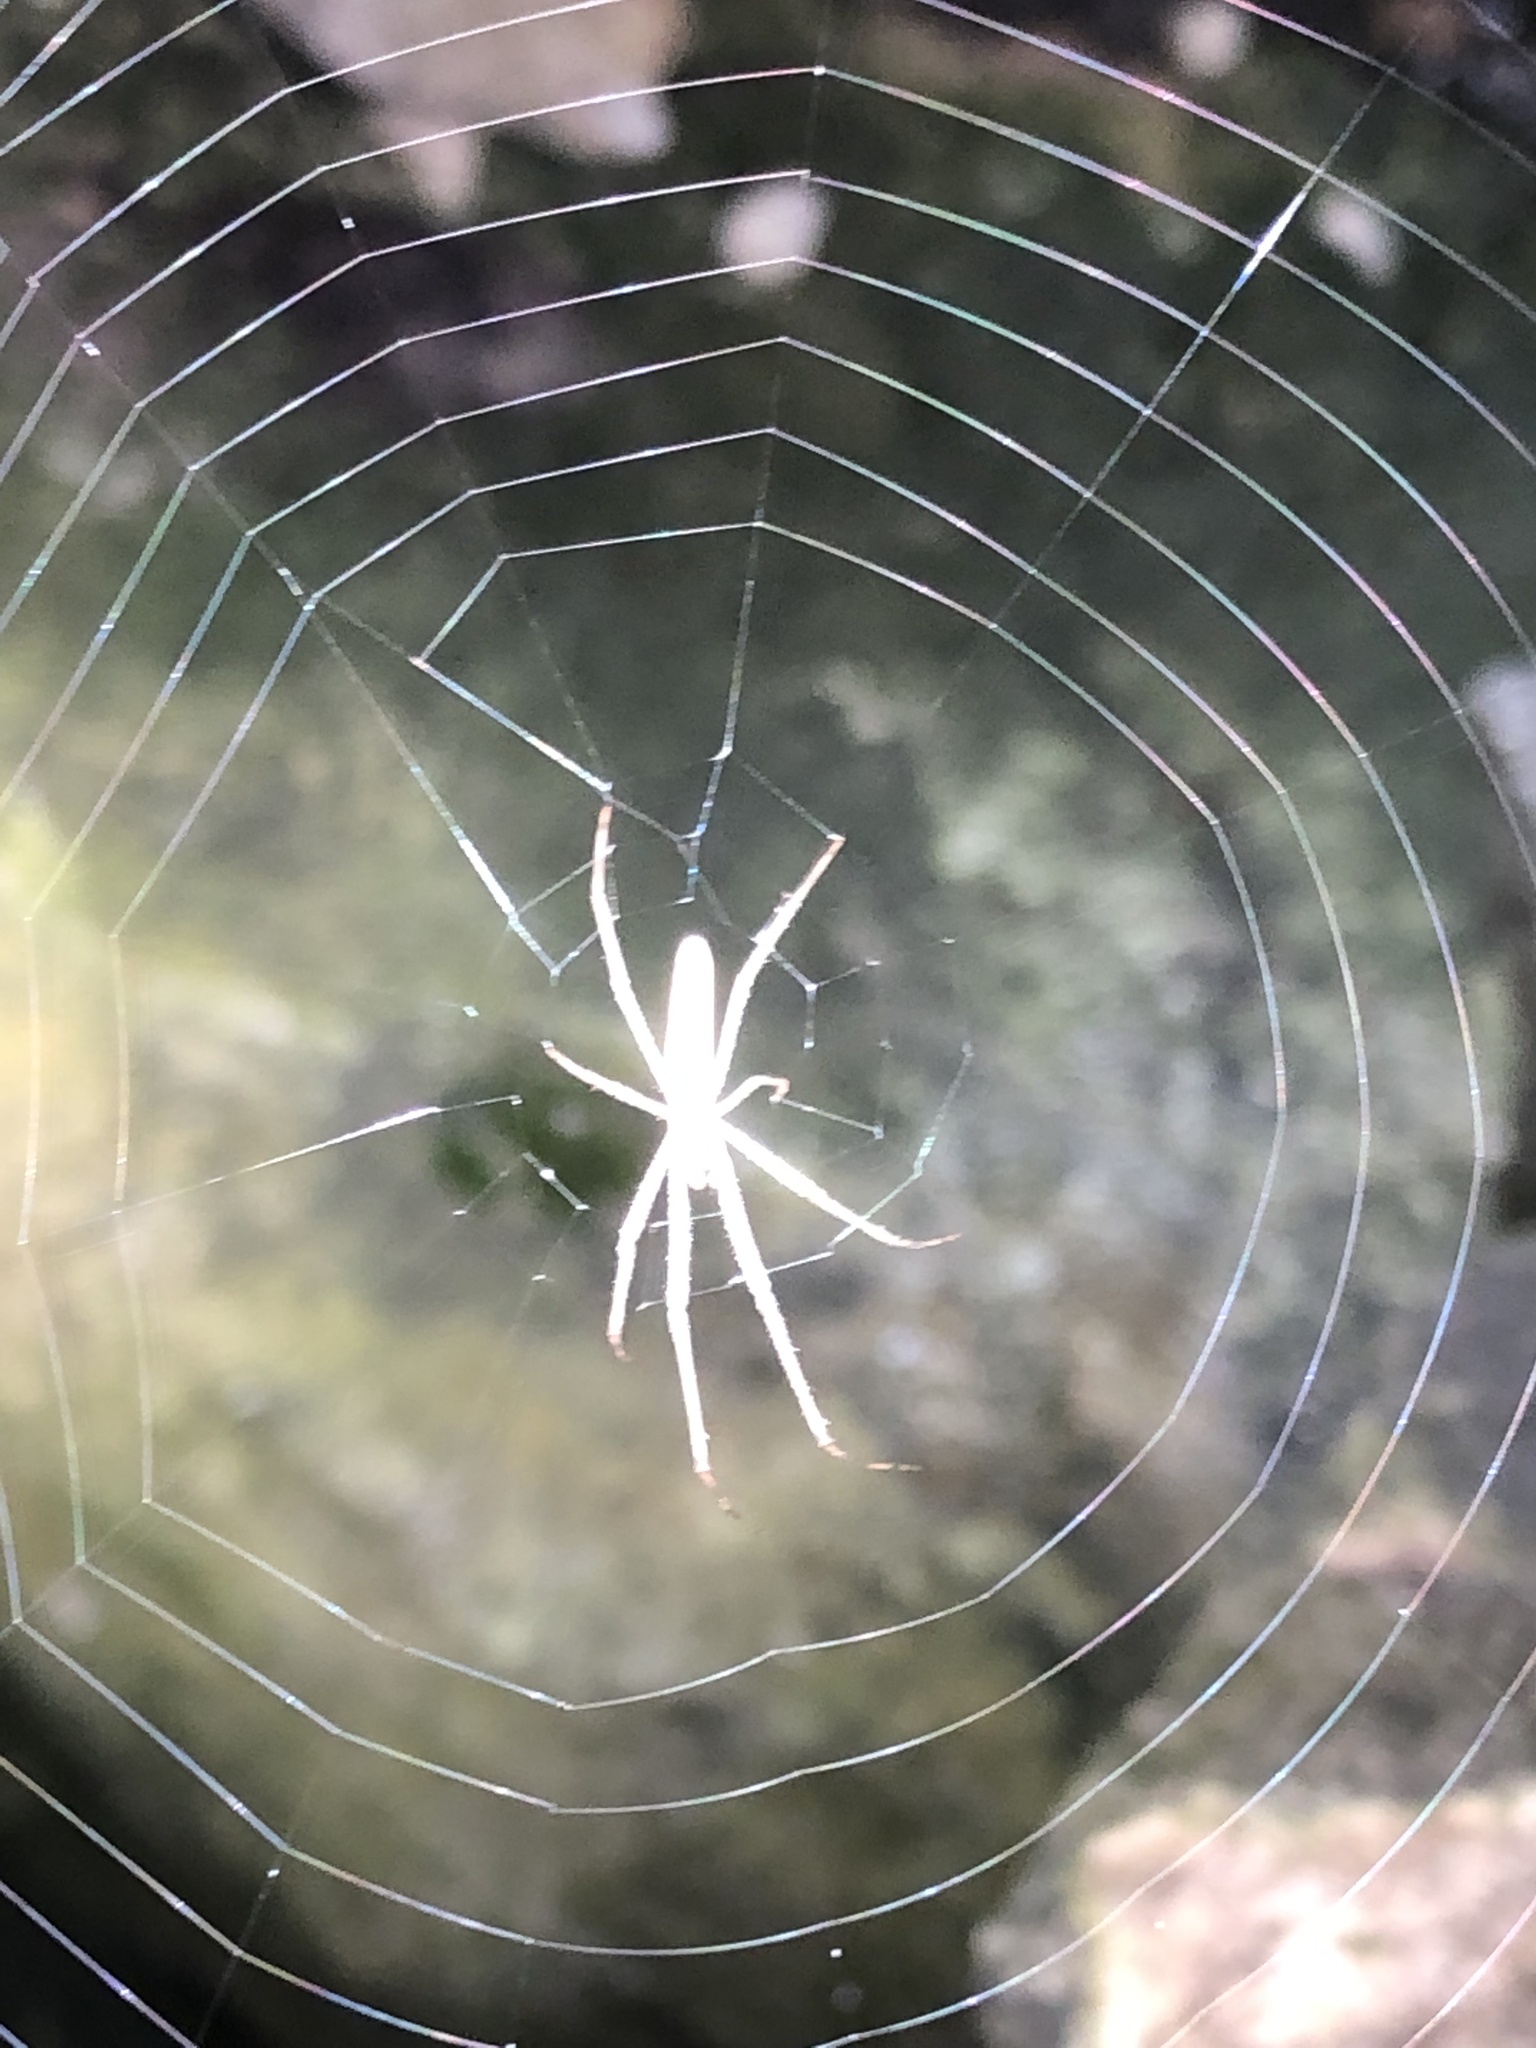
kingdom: Animalia
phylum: Arthropoda
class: Arachnida
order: Araneae
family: Tetragnathidae
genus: Tetragnatha
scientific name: Tetragnatha
